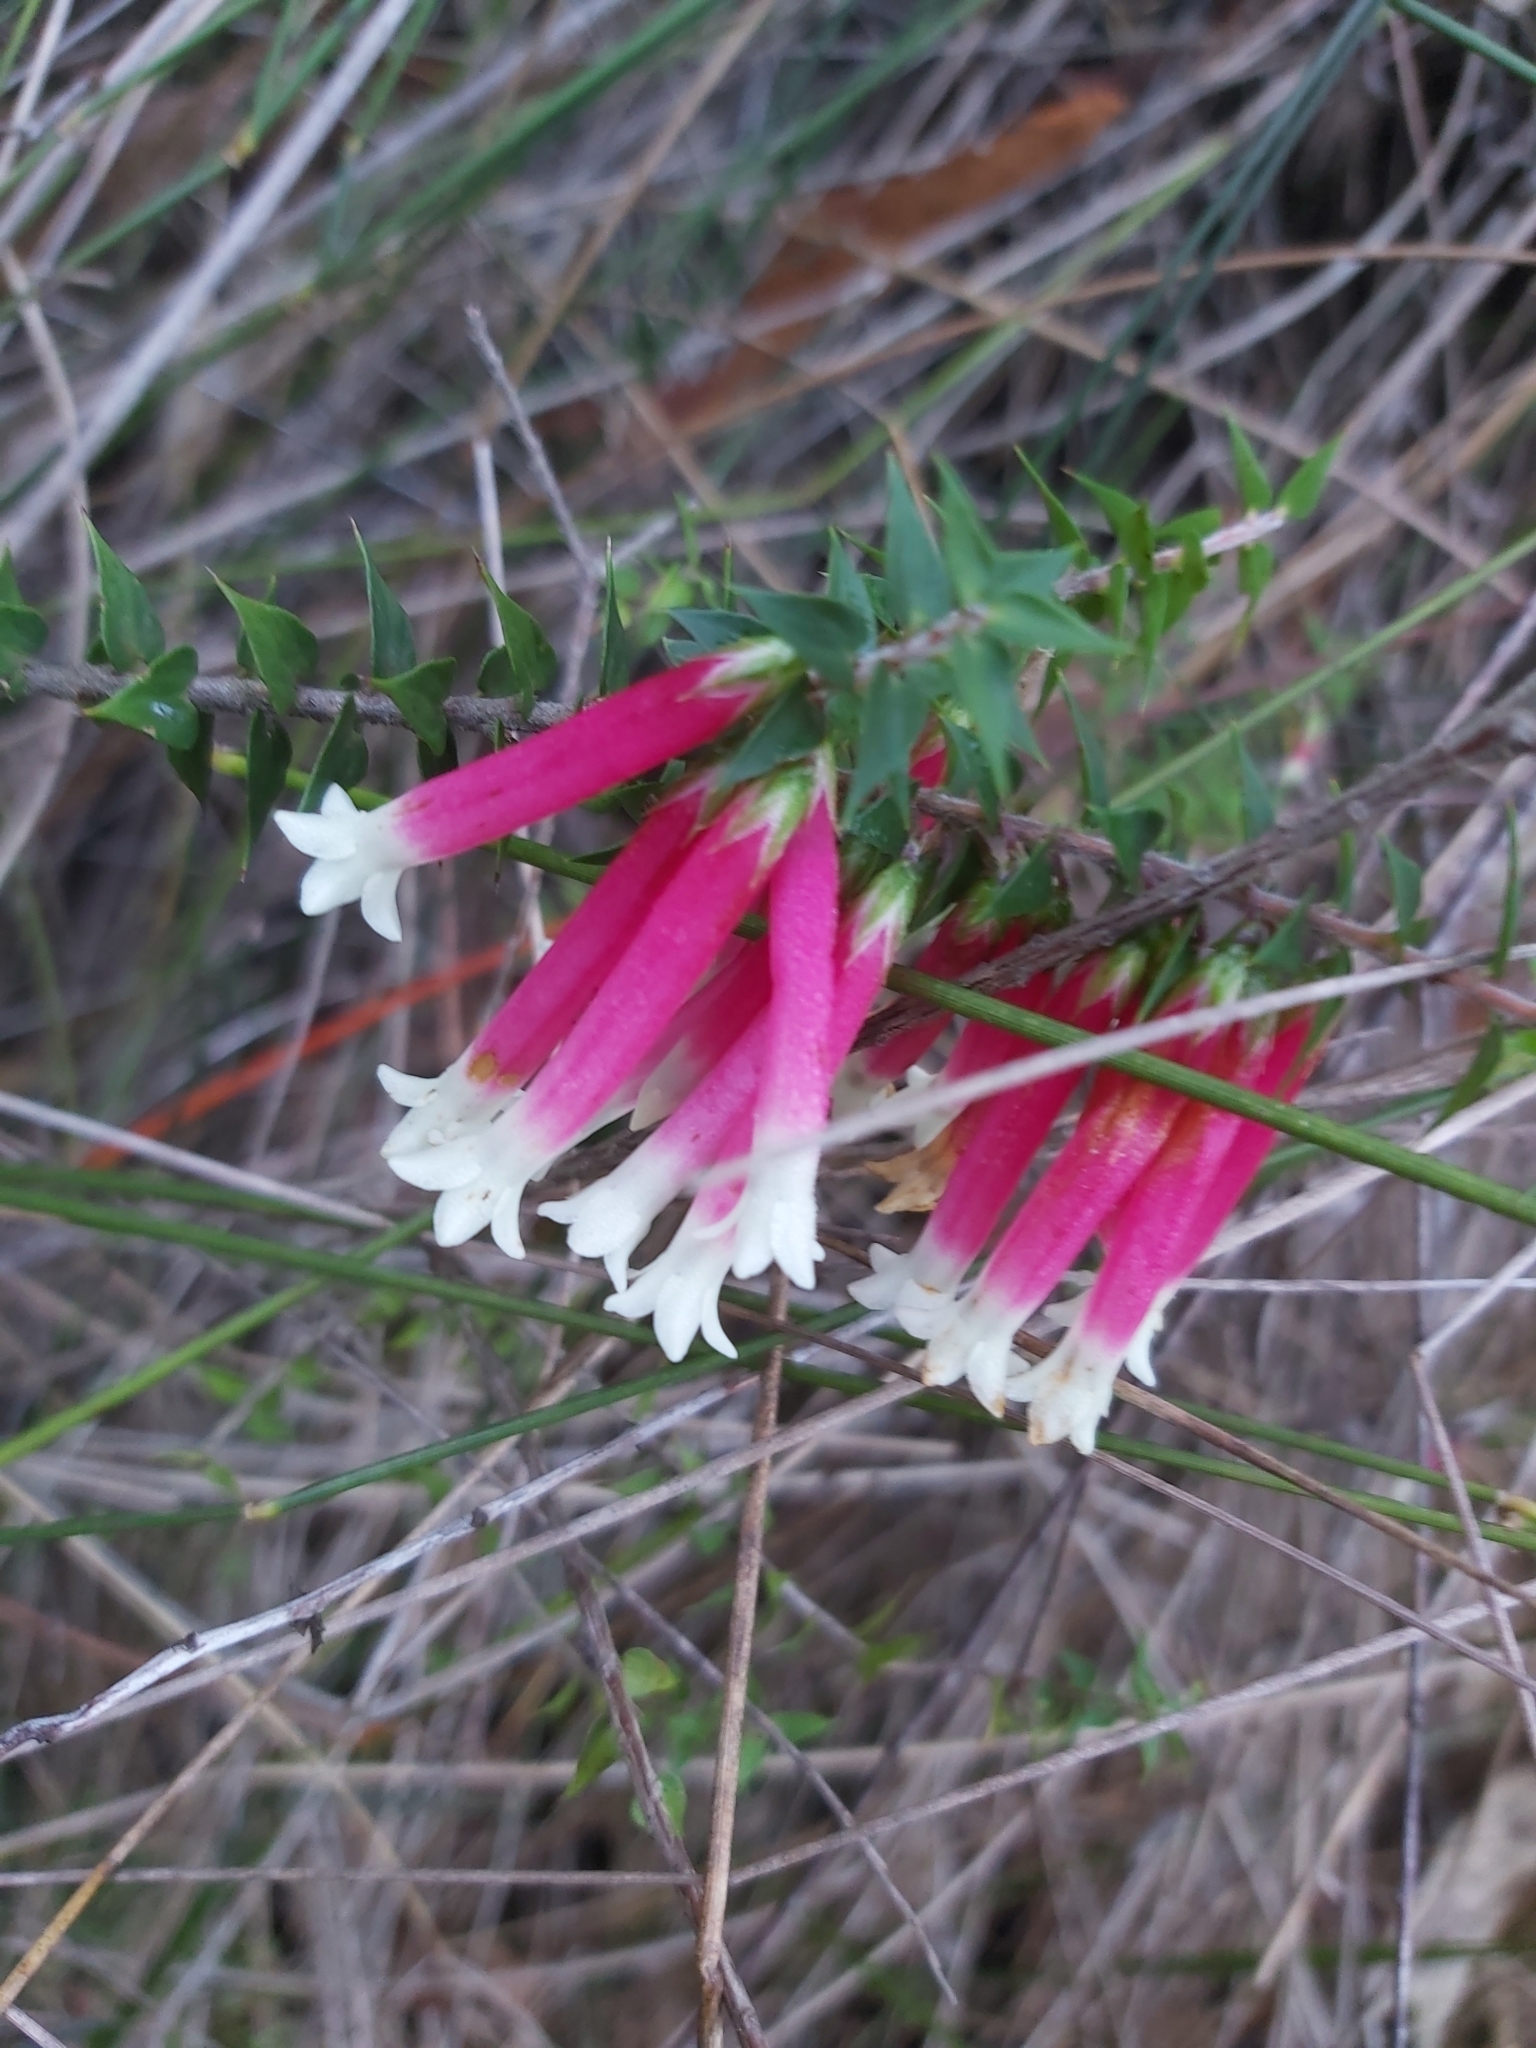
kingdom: Plantae
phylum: Tracheophyta
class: Magnoliopsida
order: Ericales
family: Ericaceae
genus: Epacris
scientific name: Epacris longiflora
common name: Fuchsia-heath
